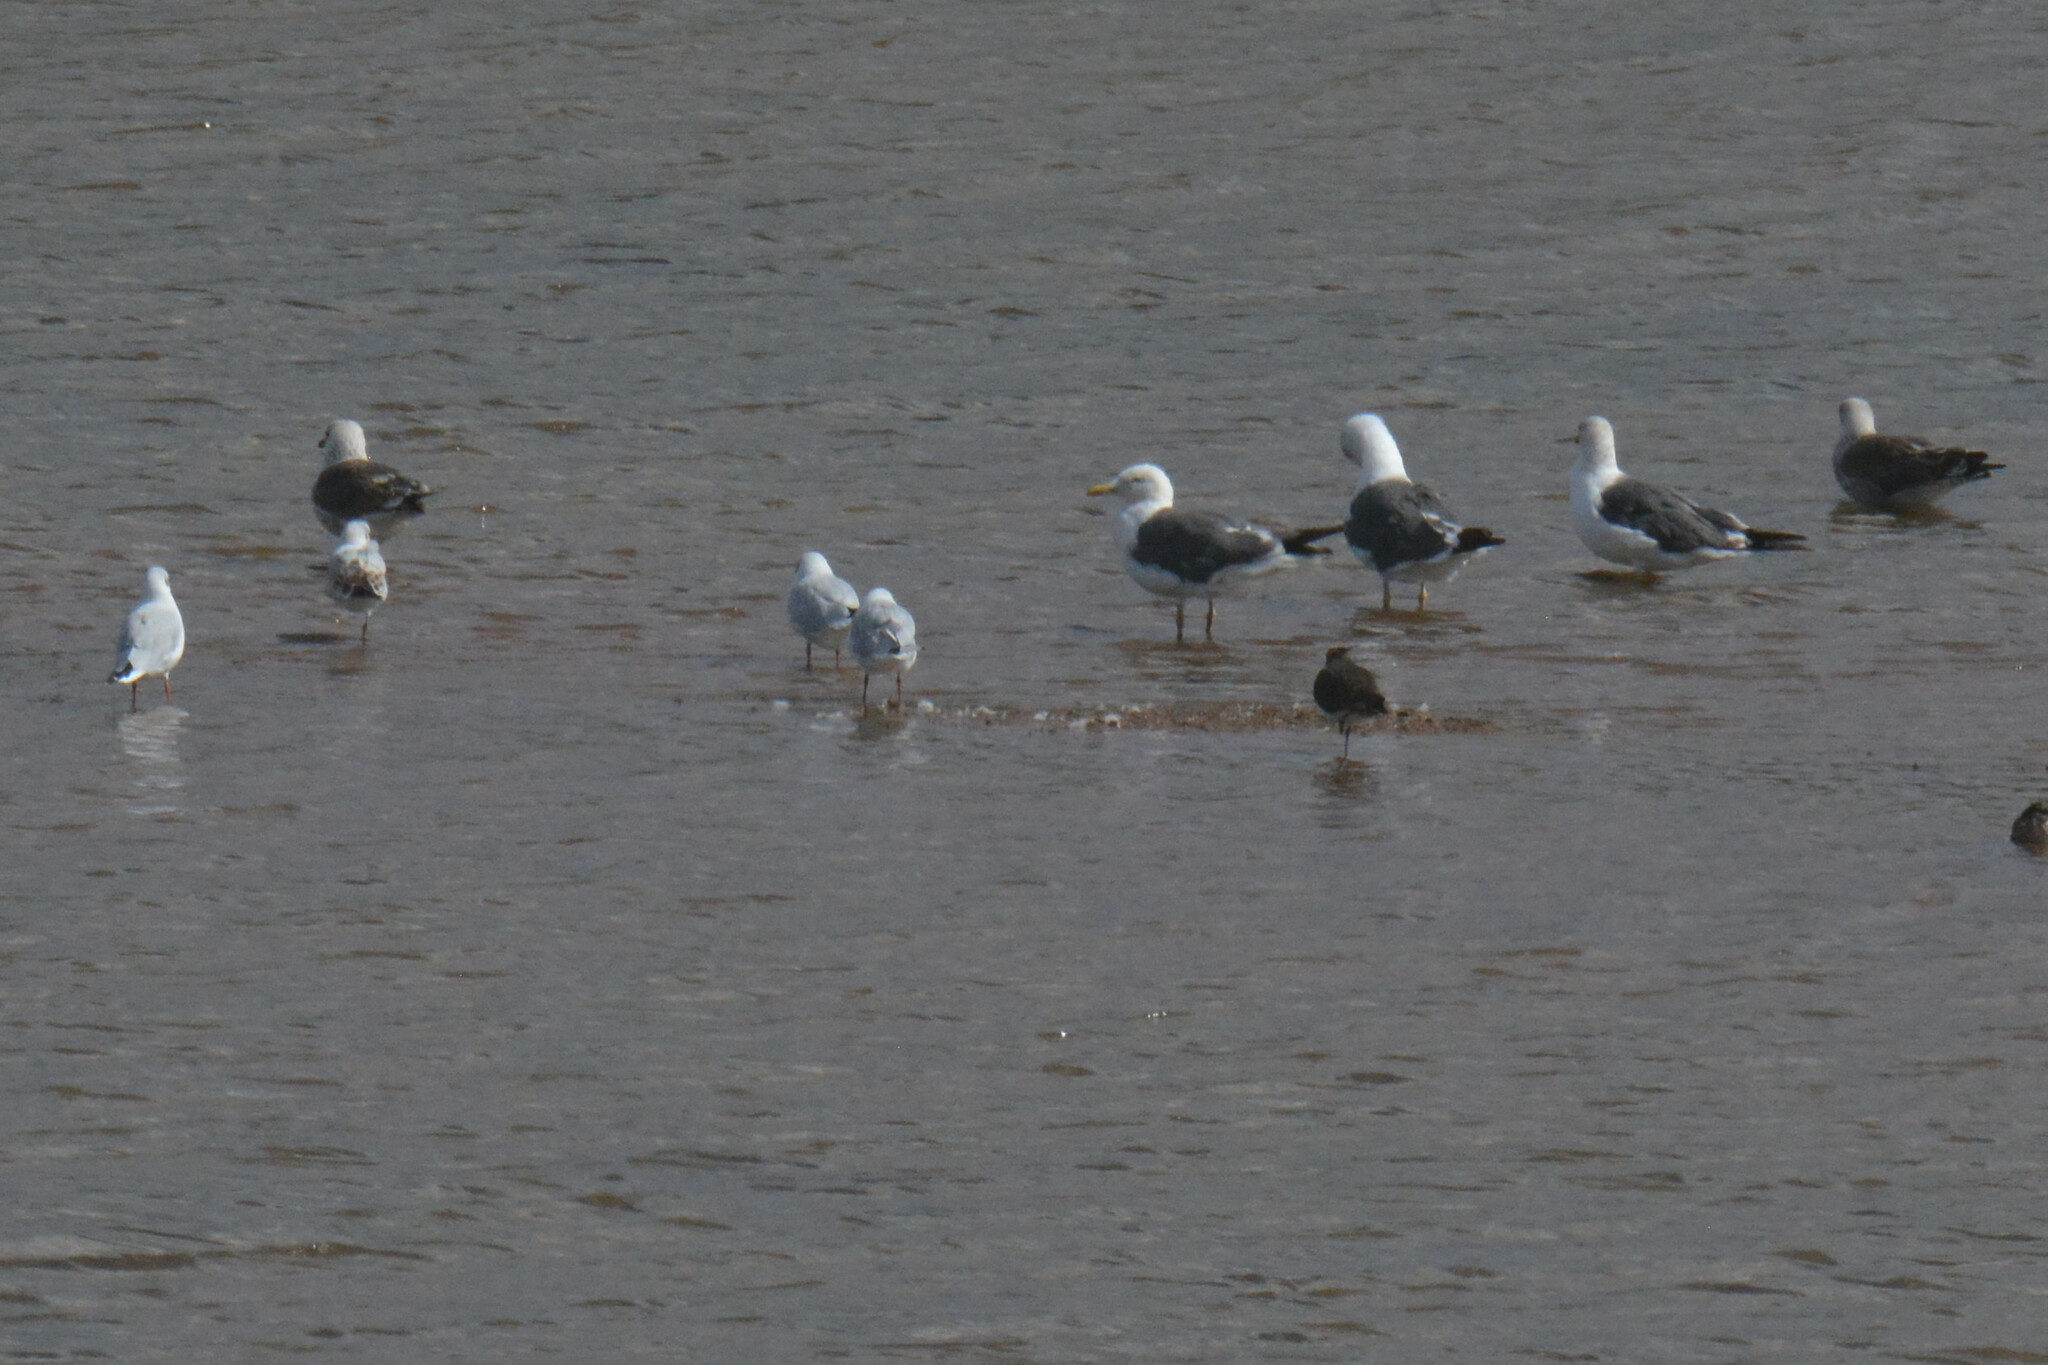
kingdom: Animalia
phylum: Chordata
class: Aves
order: Charadriiformes
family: Laridae
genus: Larus
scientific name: Larus fuscus
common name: Lesser black-backed gull
